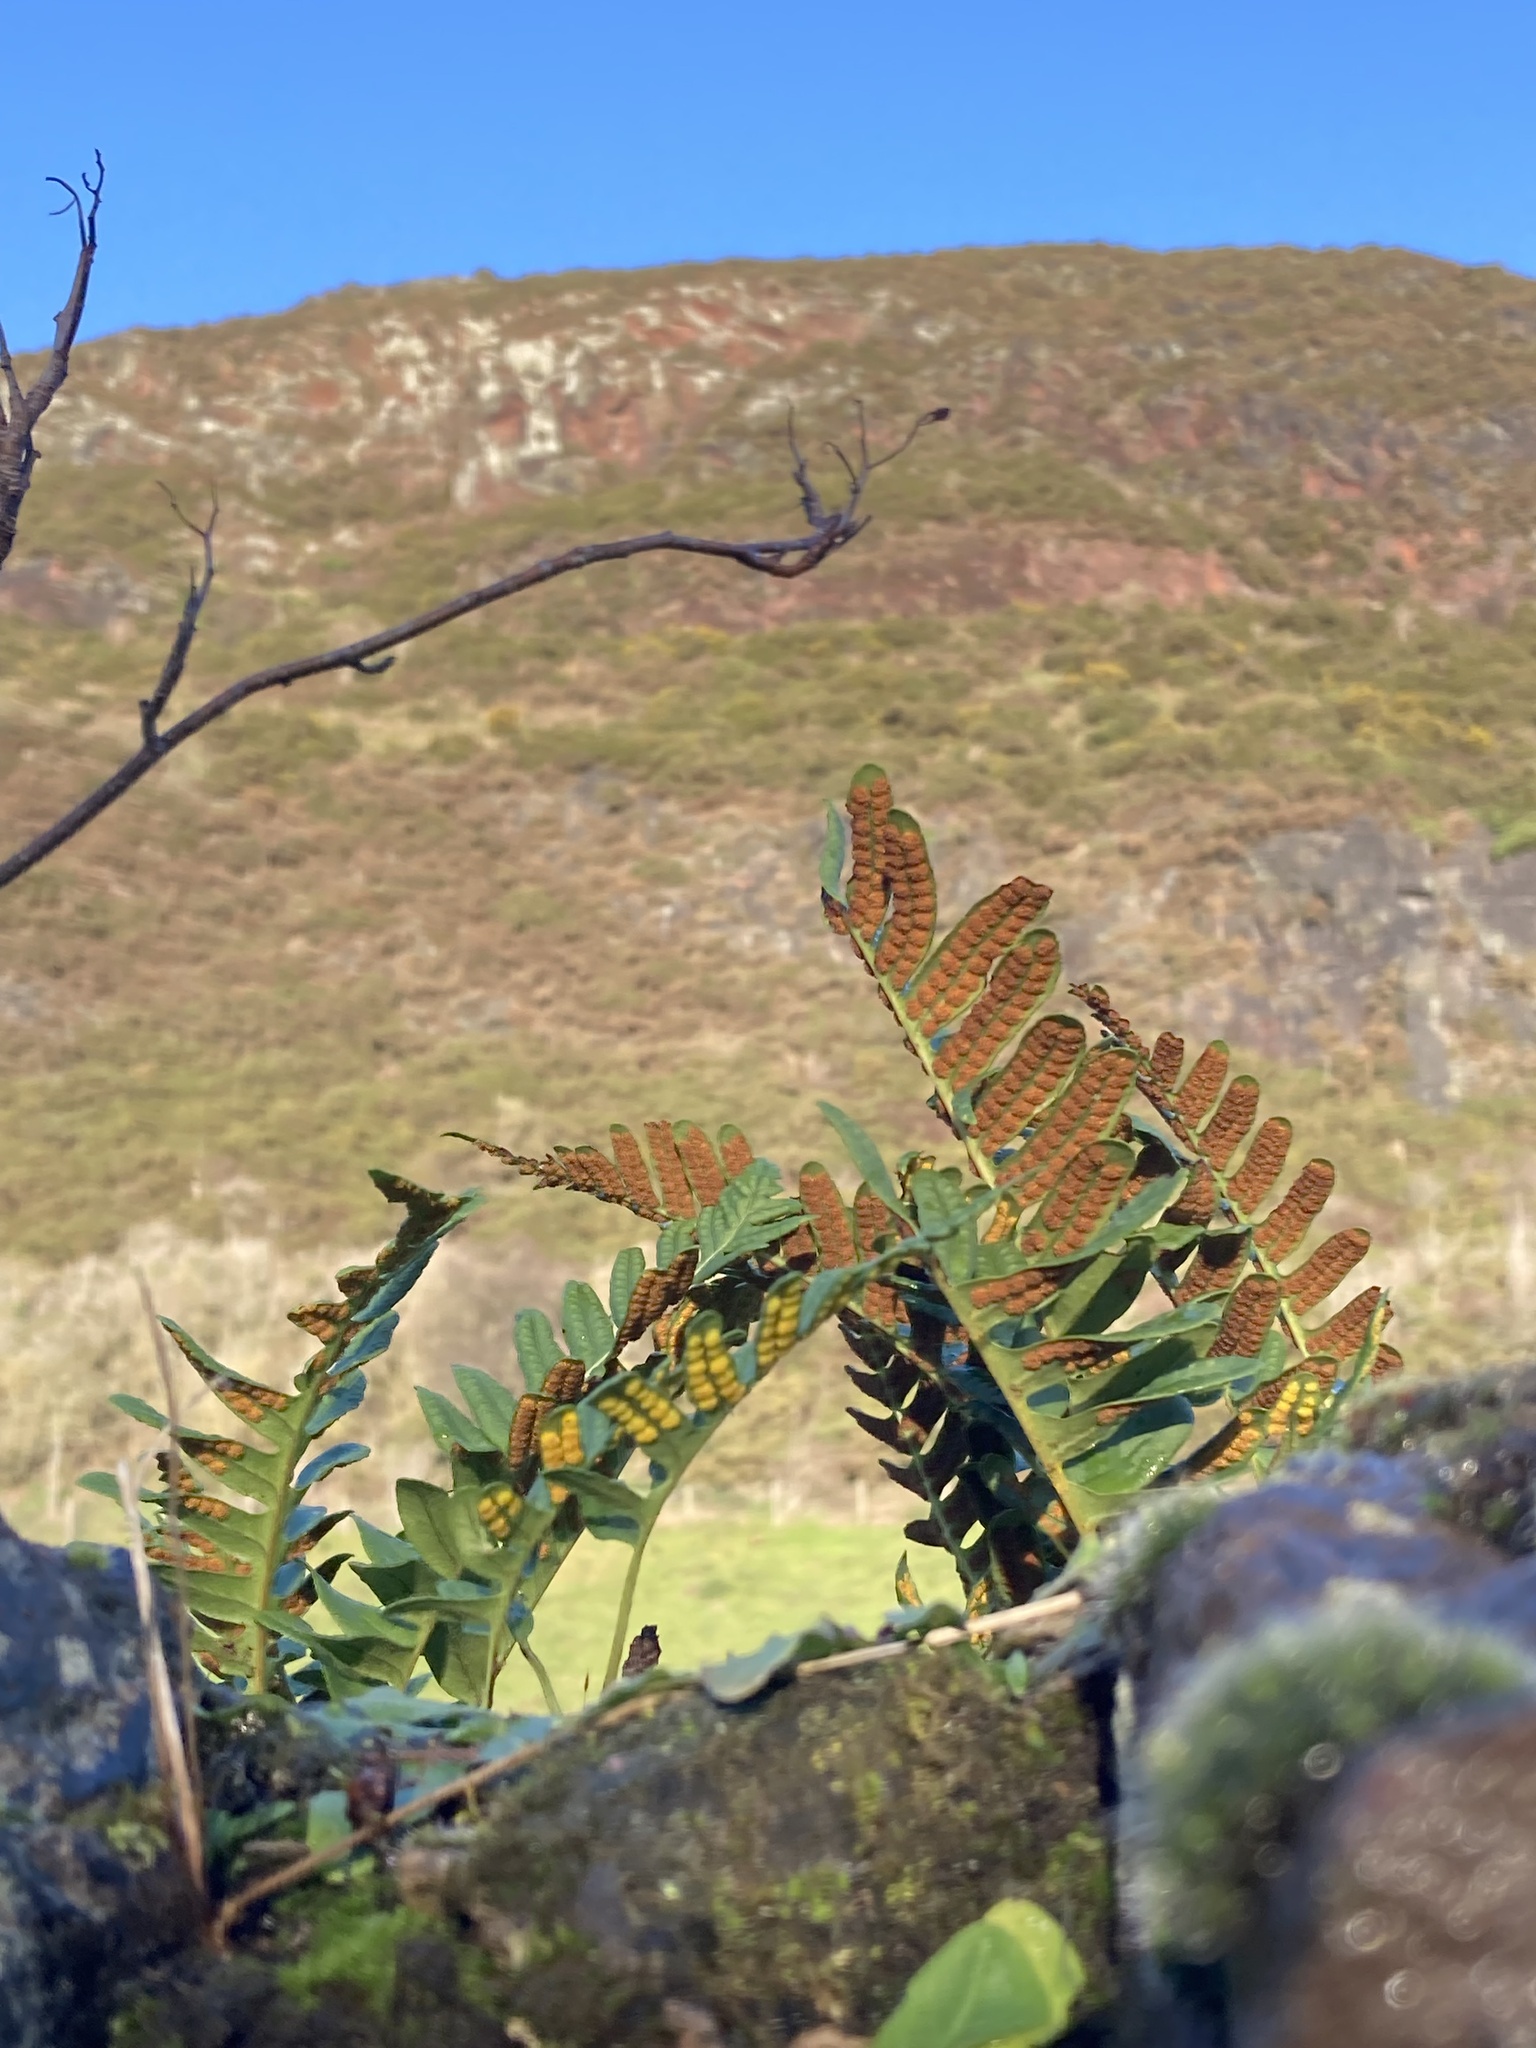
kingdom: Plantae
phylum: Tracheophyta
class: Polypodiopsida
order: Polypodiales
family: Polypodiaceae
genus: Polypodium
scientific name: Polypodium
